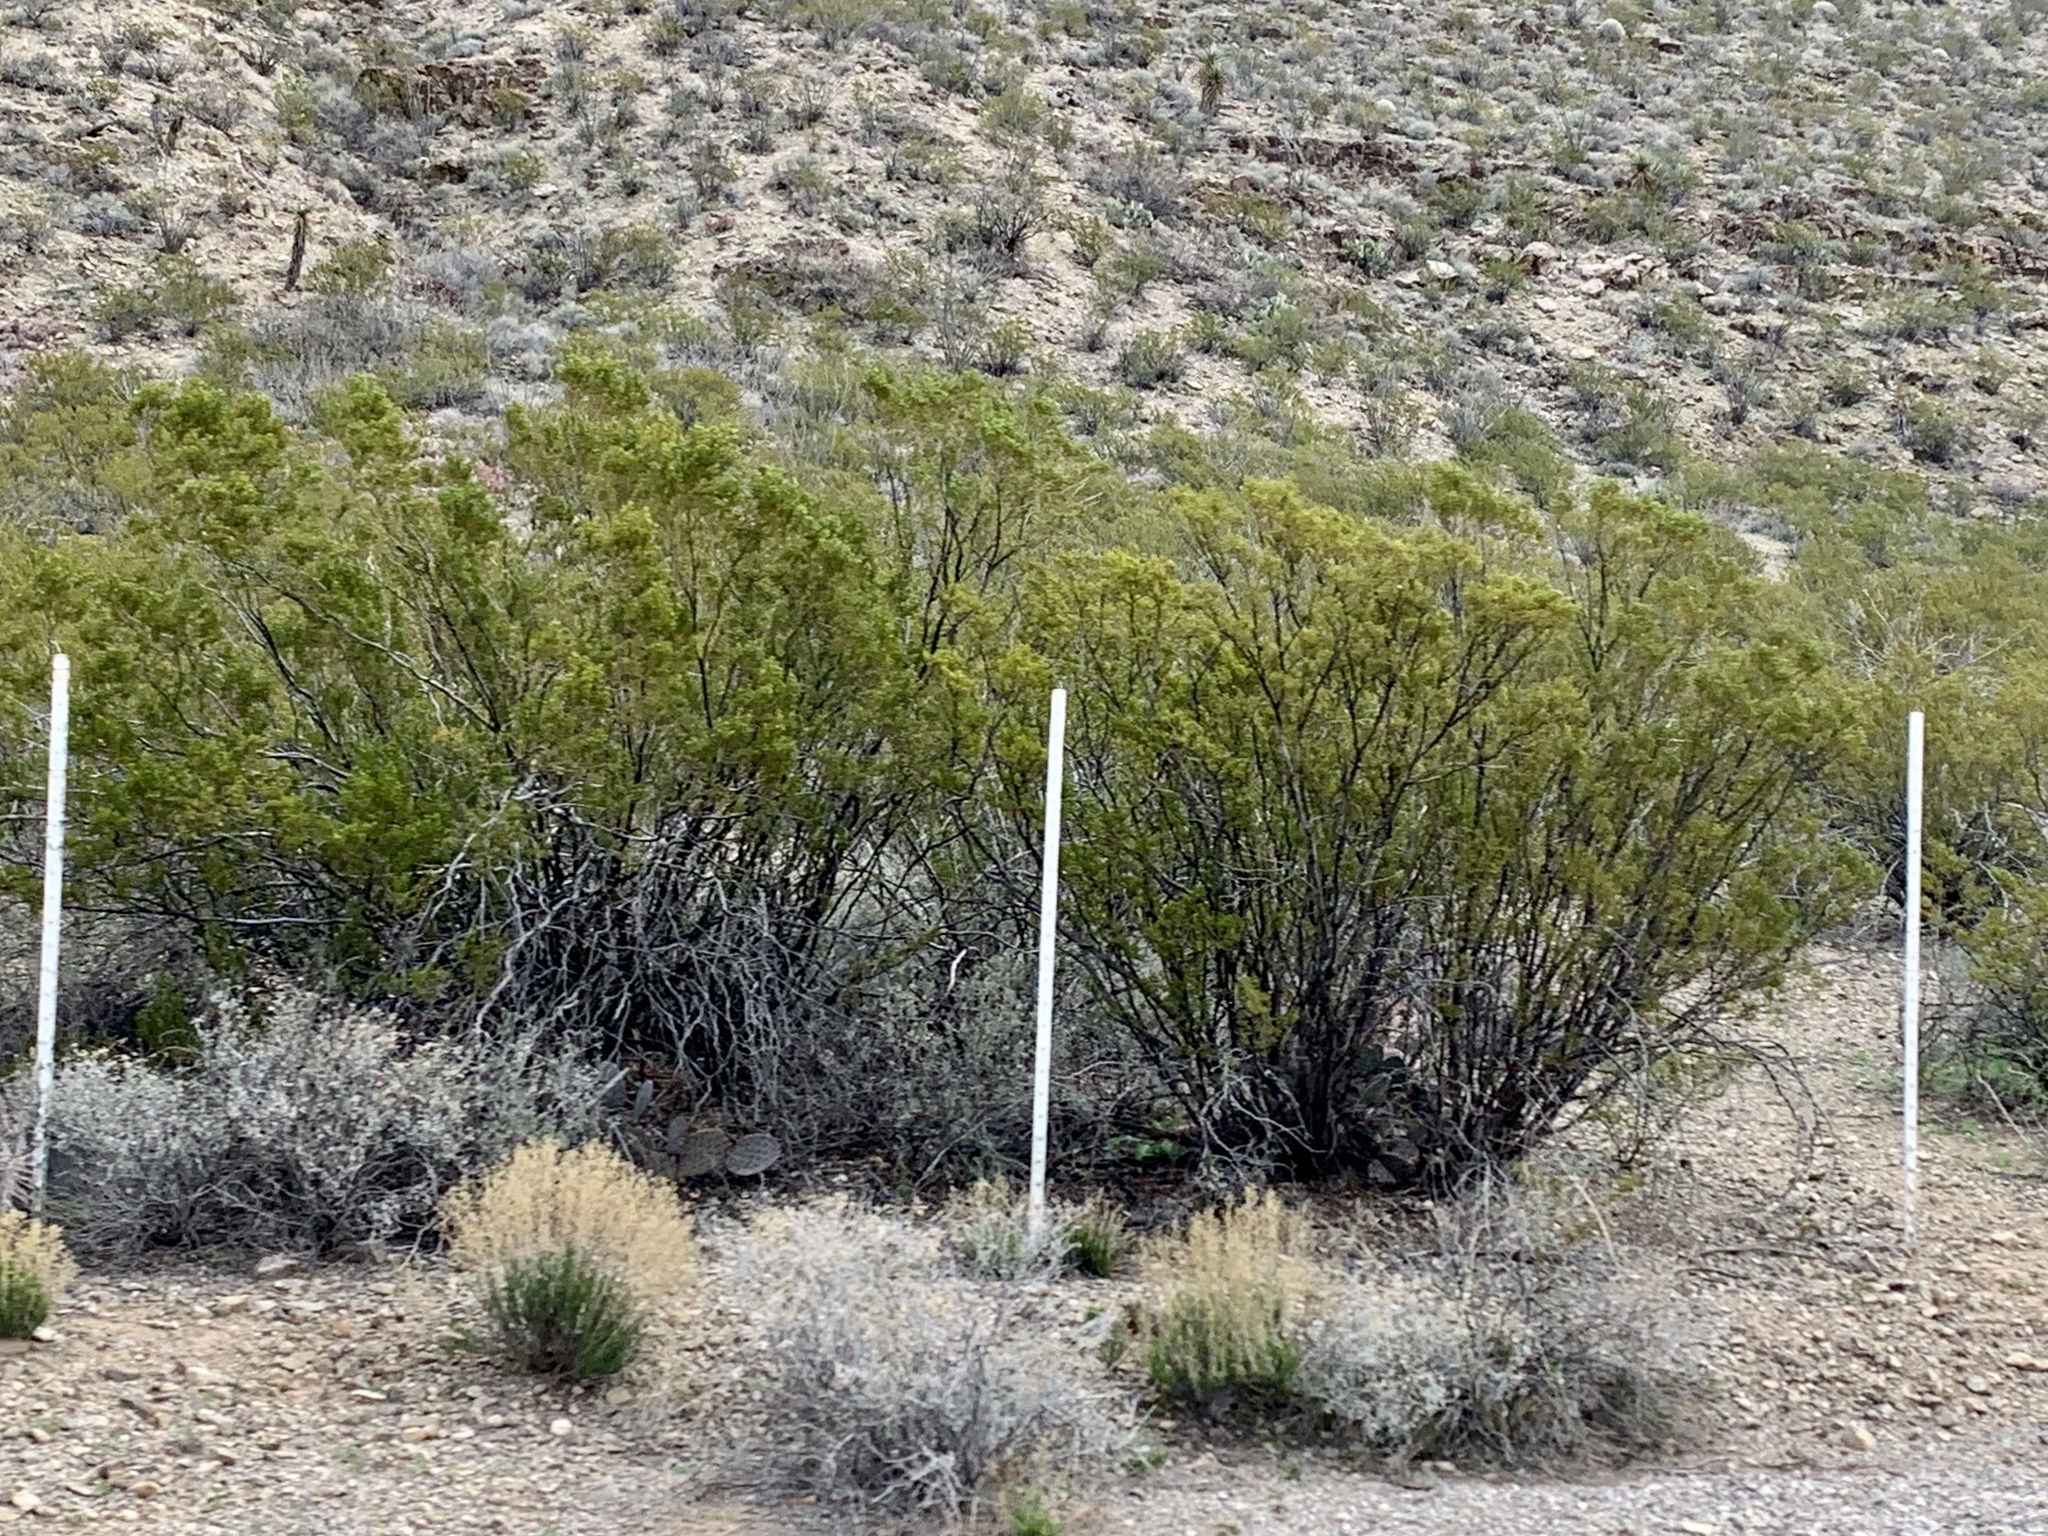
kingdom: Plantae
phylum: Tracheophyta
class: Magnoliopsida
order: Zygophyllales
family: Zygophyllaceae
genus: Larrea
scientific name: Larrea tridentata
